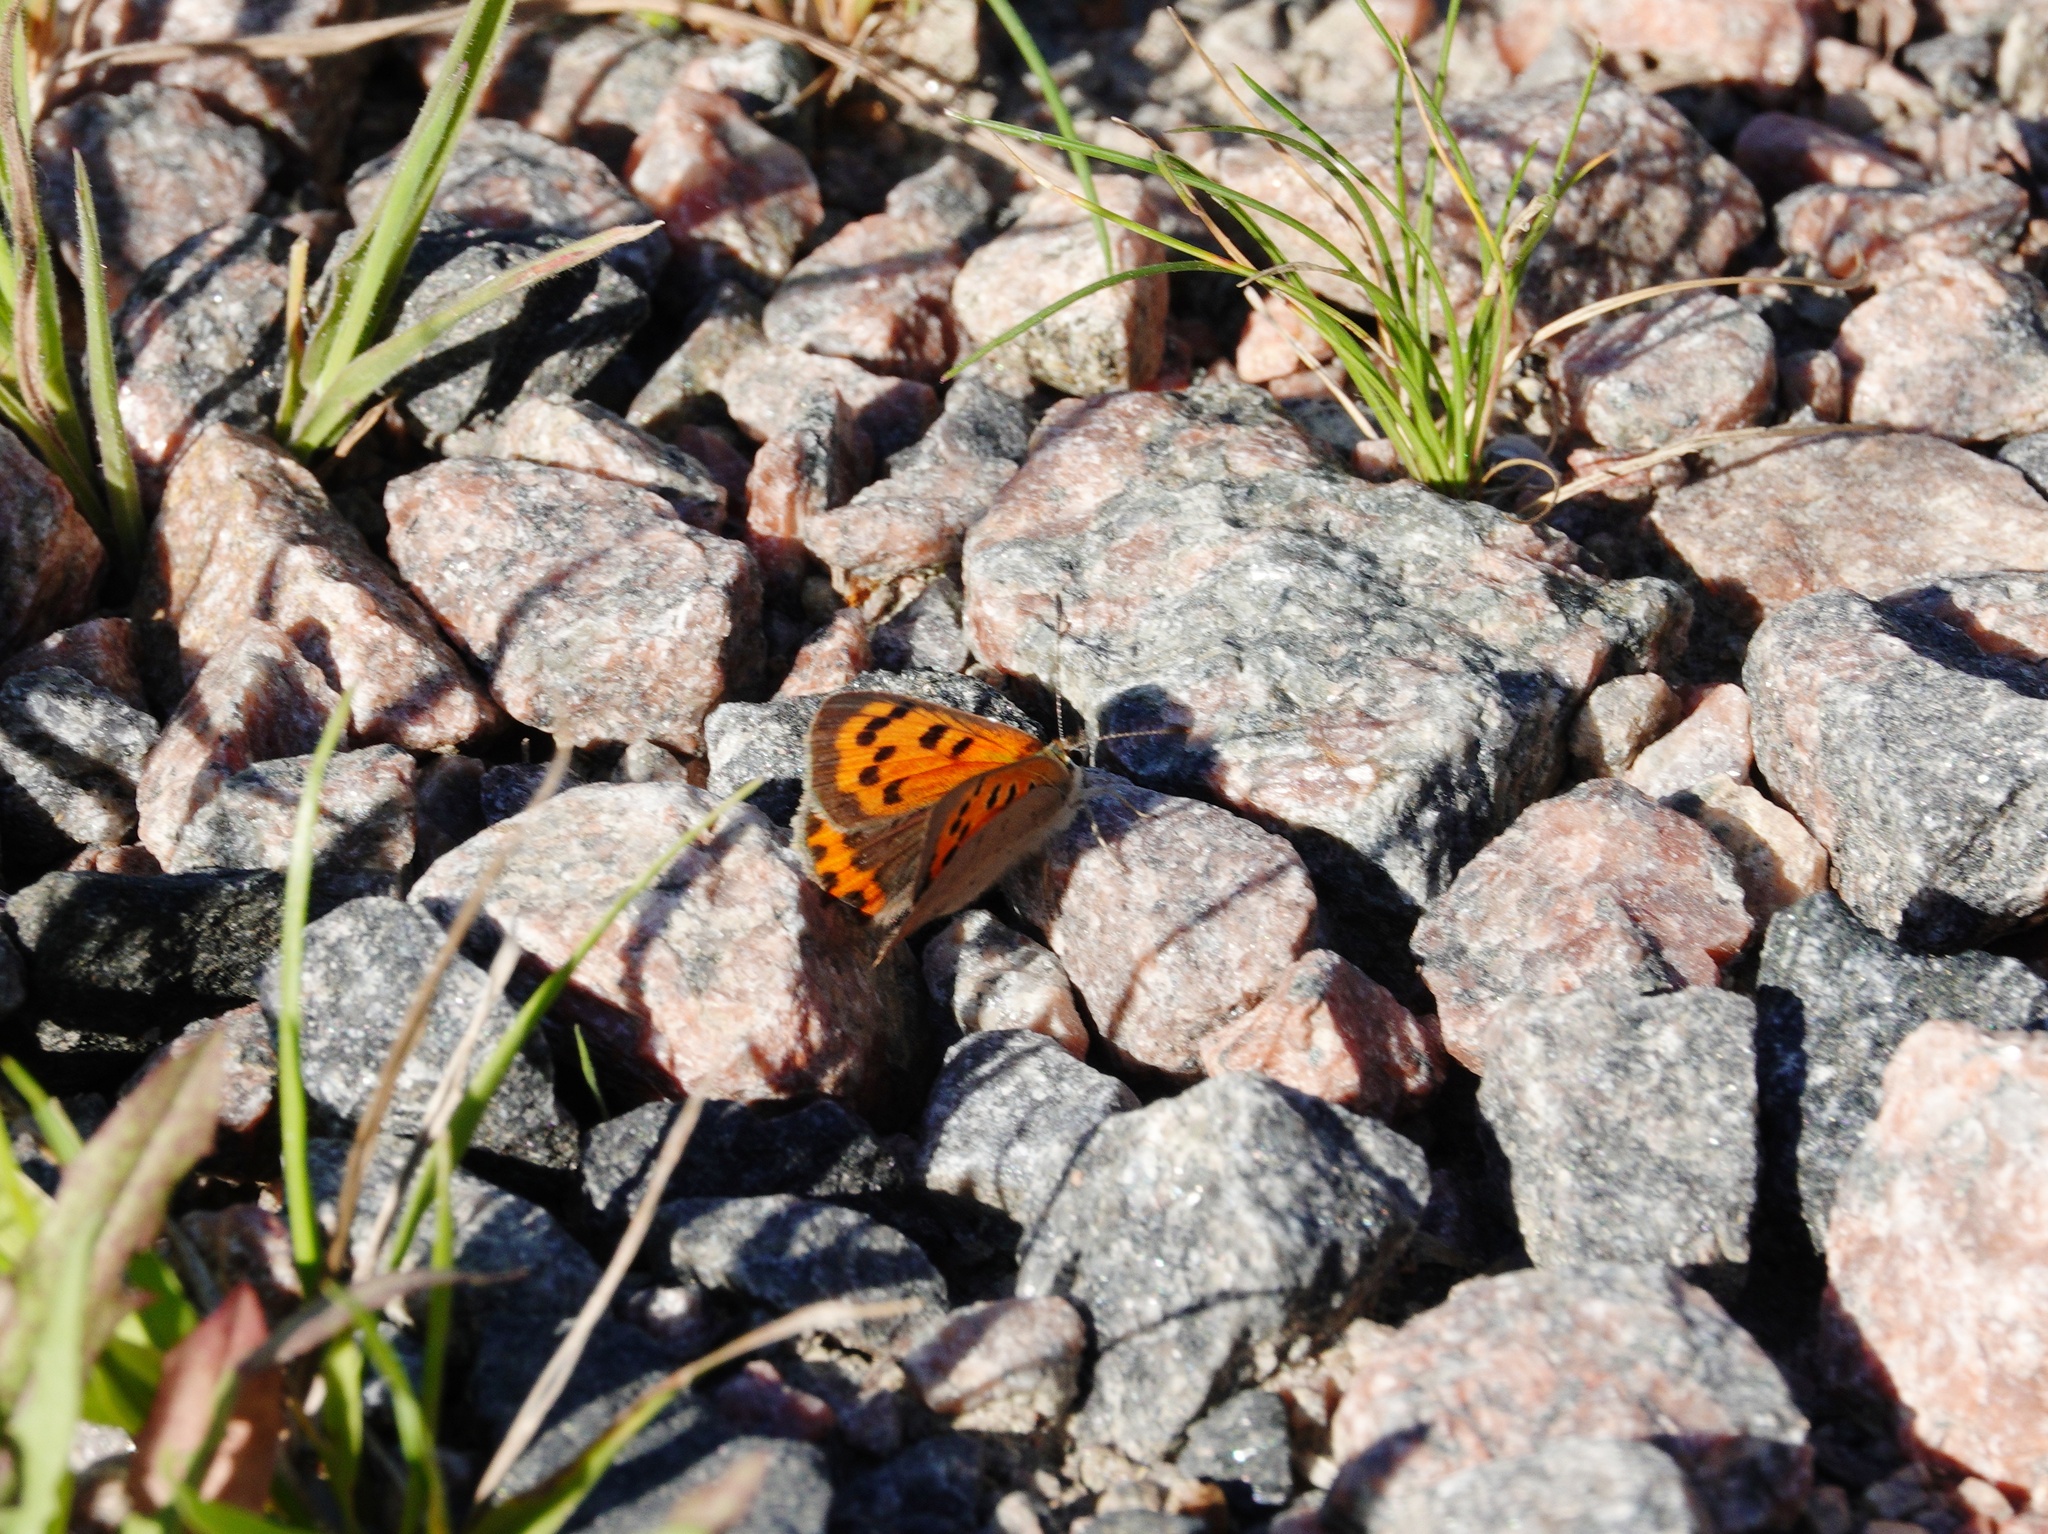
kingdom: Animalia
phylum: Arthropoda
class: Insecta
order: Lepidoptera
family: Lycaenidae
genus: Lycaena
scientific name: Lycaena phlaeas
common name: Small copper
